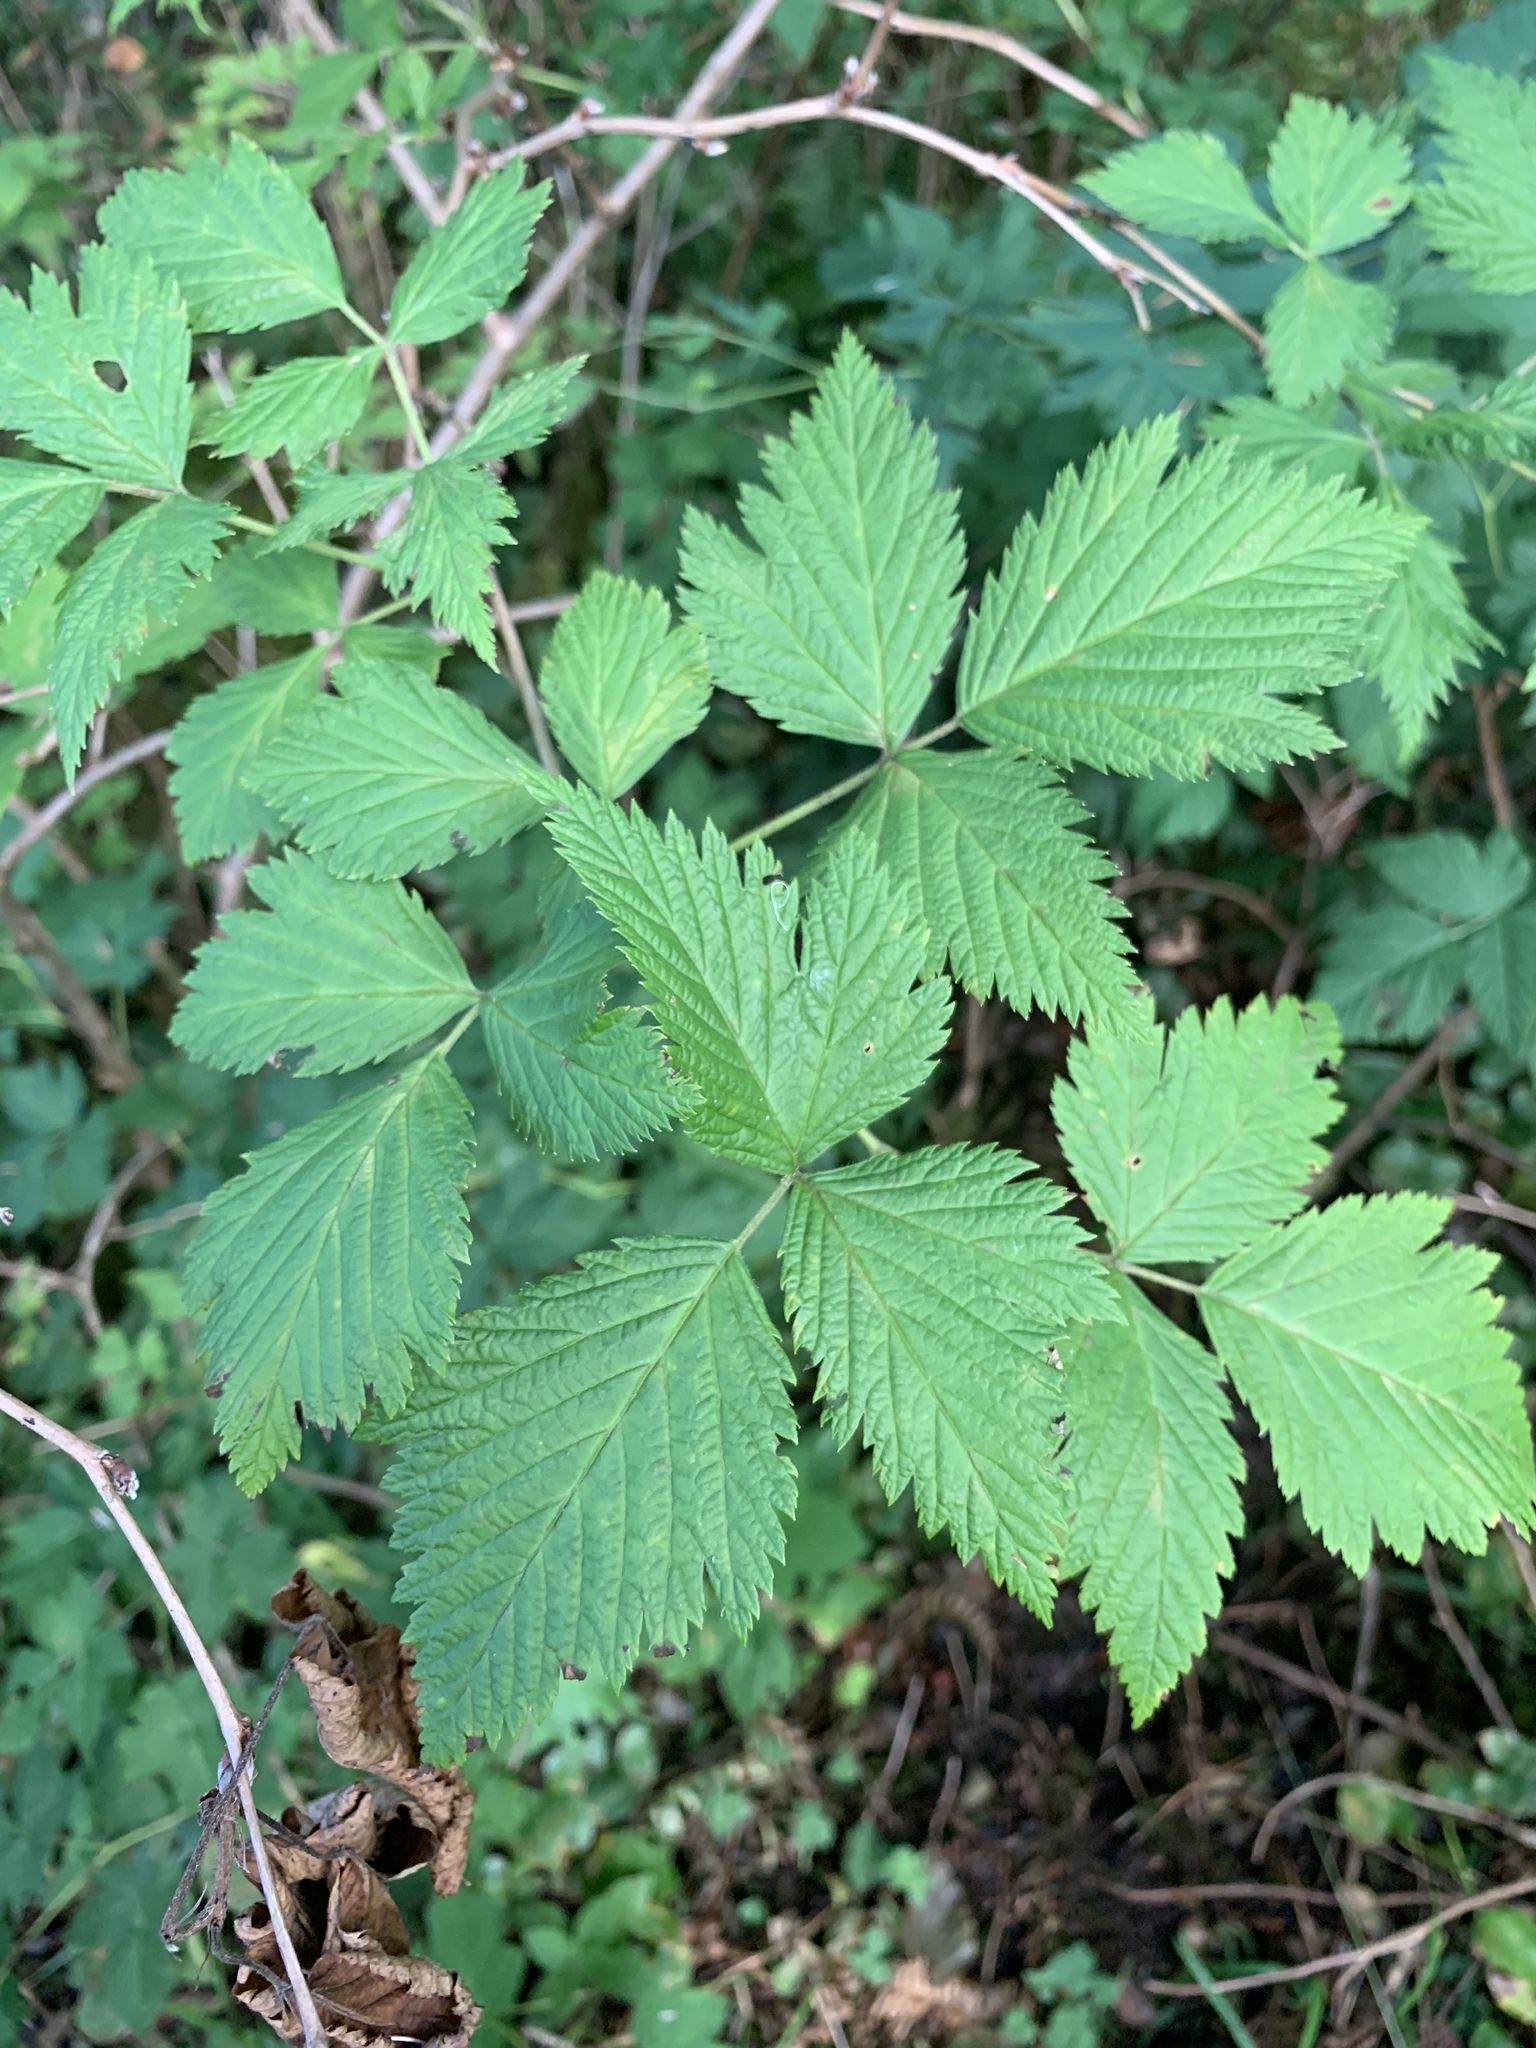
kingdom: Plantae
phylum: Tracheophyta
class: Magnoliopsida
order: Rosales
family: Rosaceae
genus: Rubus
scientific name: Rubus spectabilis
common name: Salmonberry
